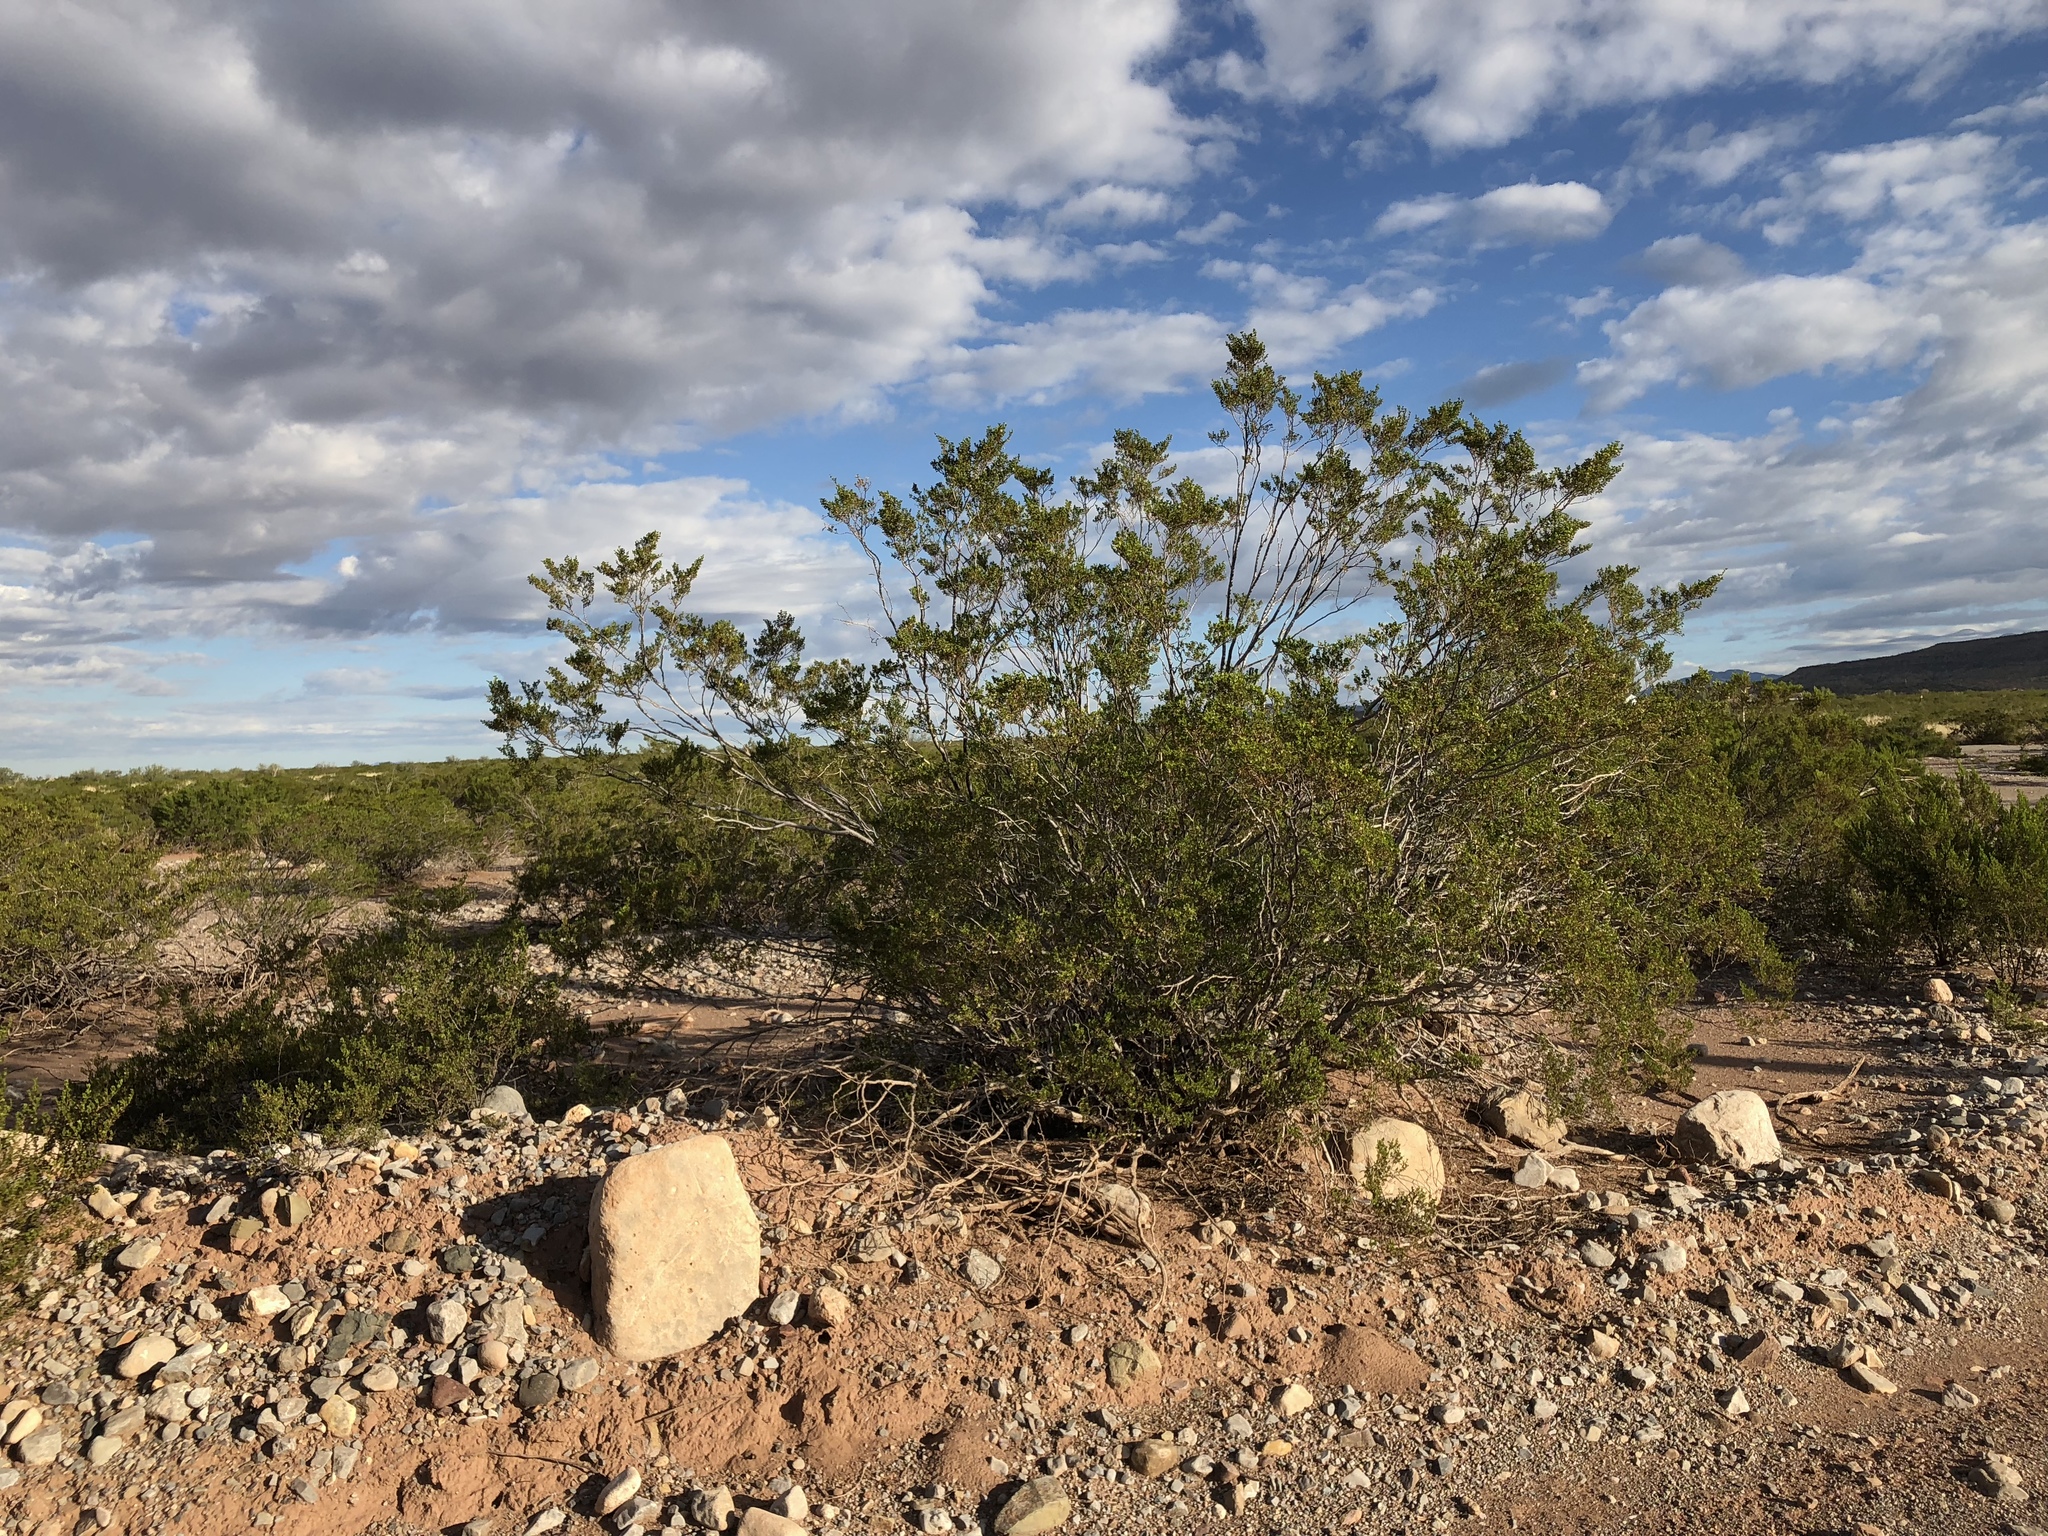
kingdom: Plantae
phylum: Tracheophyta
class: Magnoliopsida
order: Zygophyllales
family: Zygophyllaceae
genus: Larrea
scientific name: Larrea tridentata
